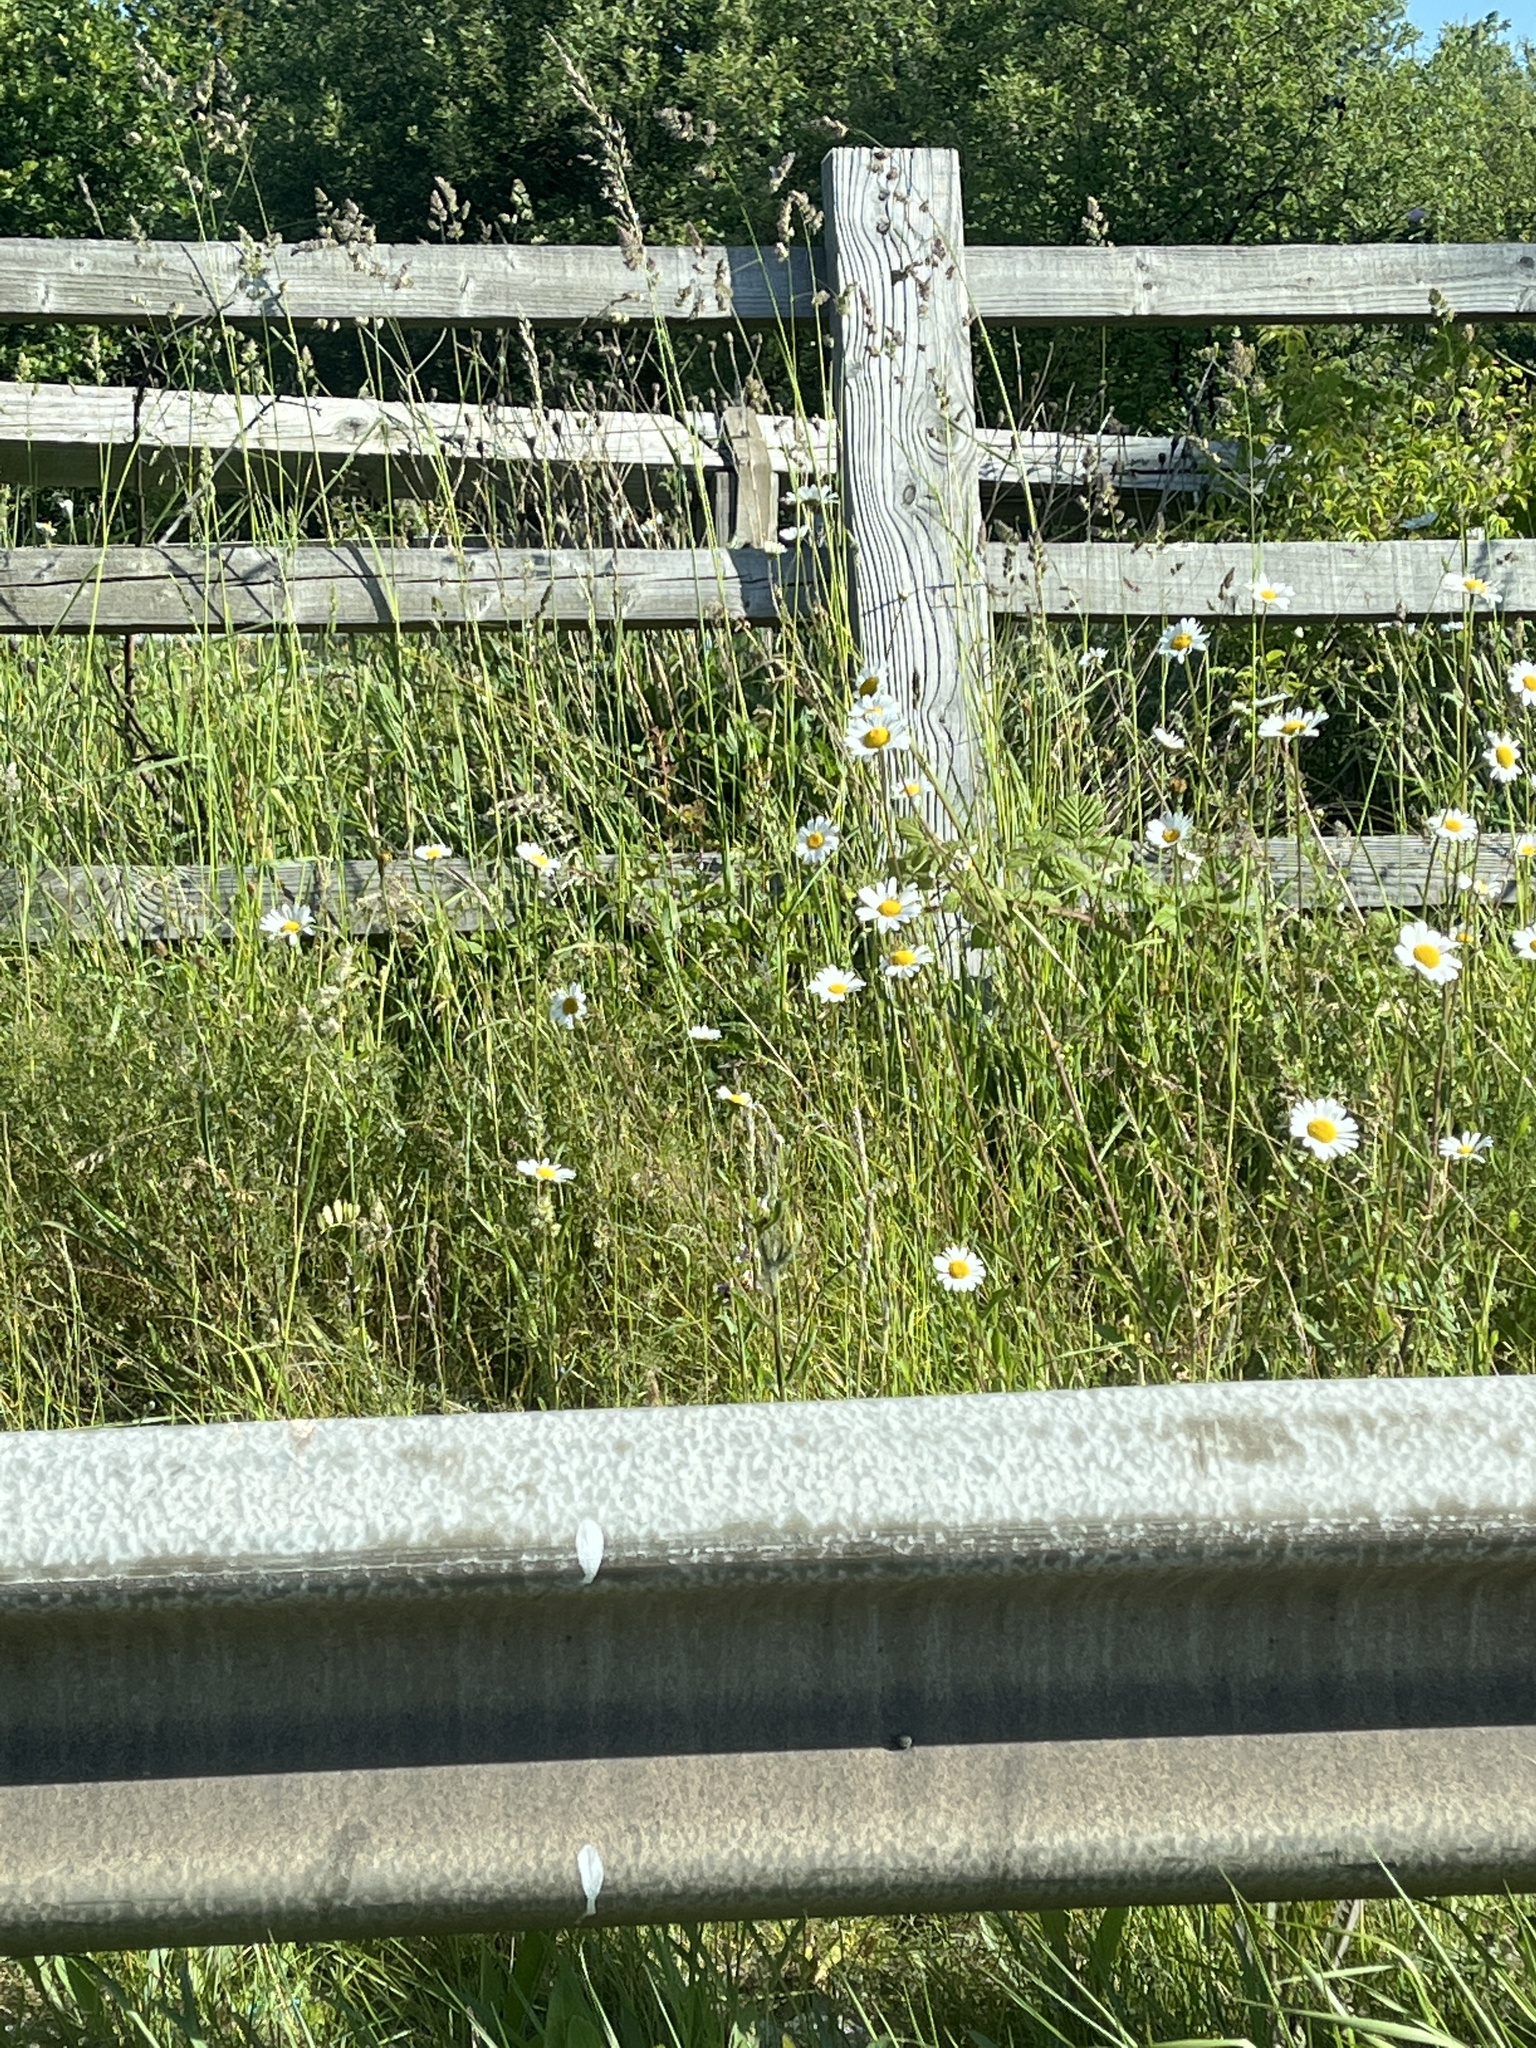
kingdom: Plantae
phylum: Tracheophyta
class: Magnoliopsida
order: Asterales
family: Asteraceae
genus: Leucanthemum
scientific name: Leucanthemum vulgare
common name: Oxeye daisy
